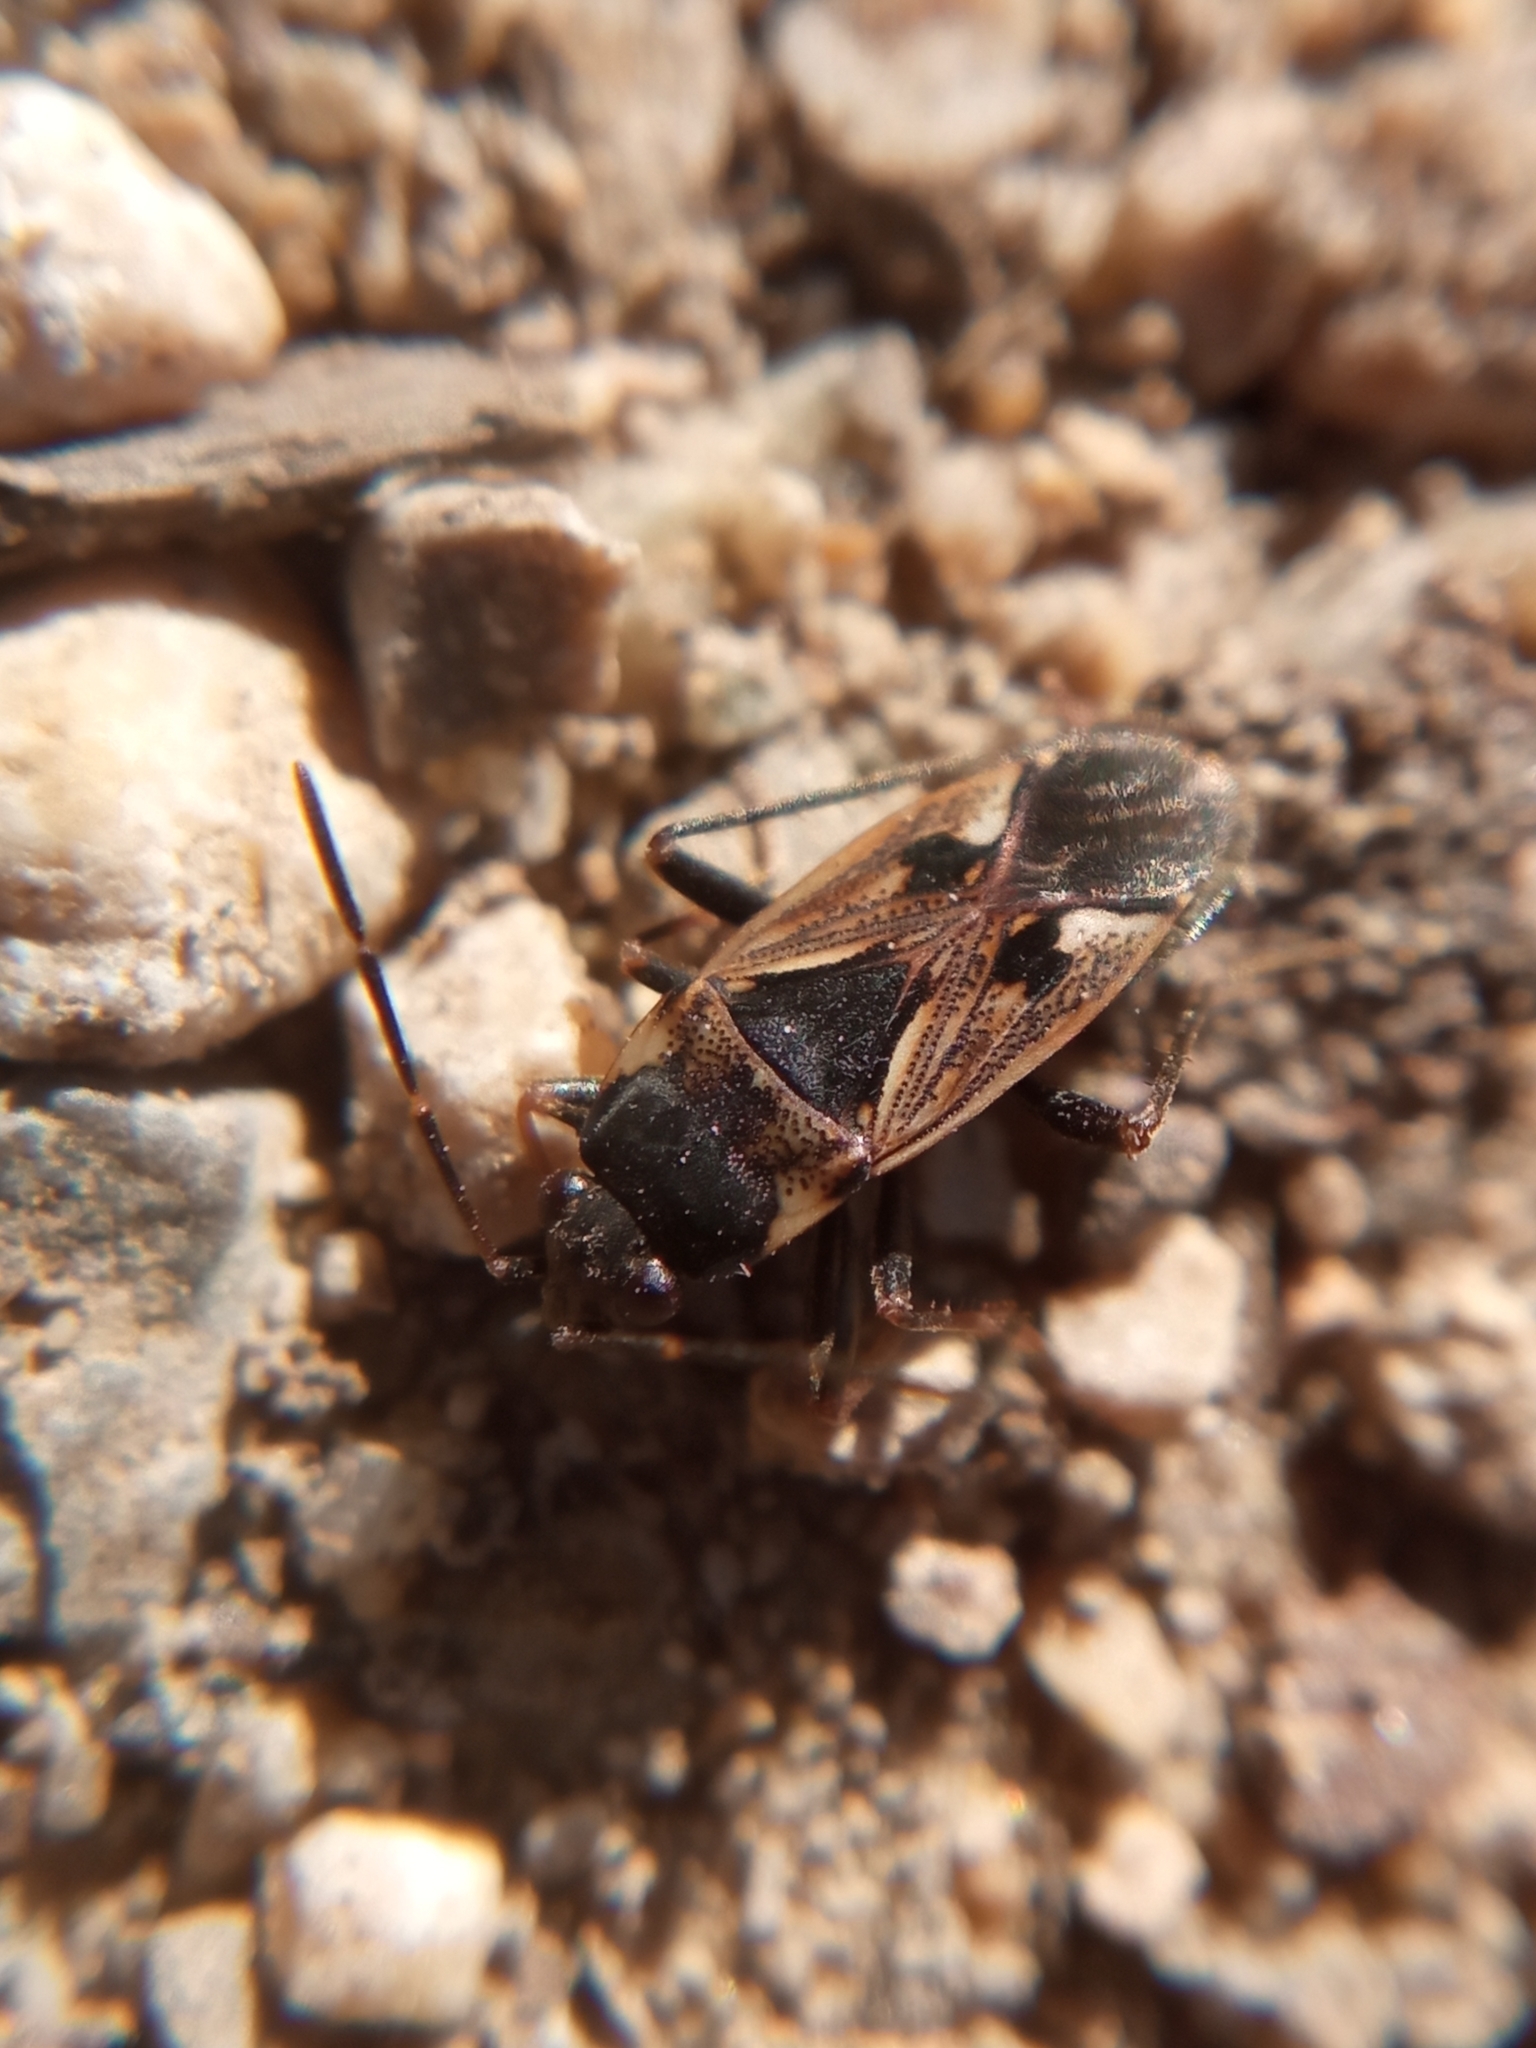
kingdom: Animalia
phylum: Arthropoda
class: Insecta
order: Hemiptera
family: Rhyparochromidae
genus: Rhyparochromus
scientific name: Rhyparochromus vulgaris
